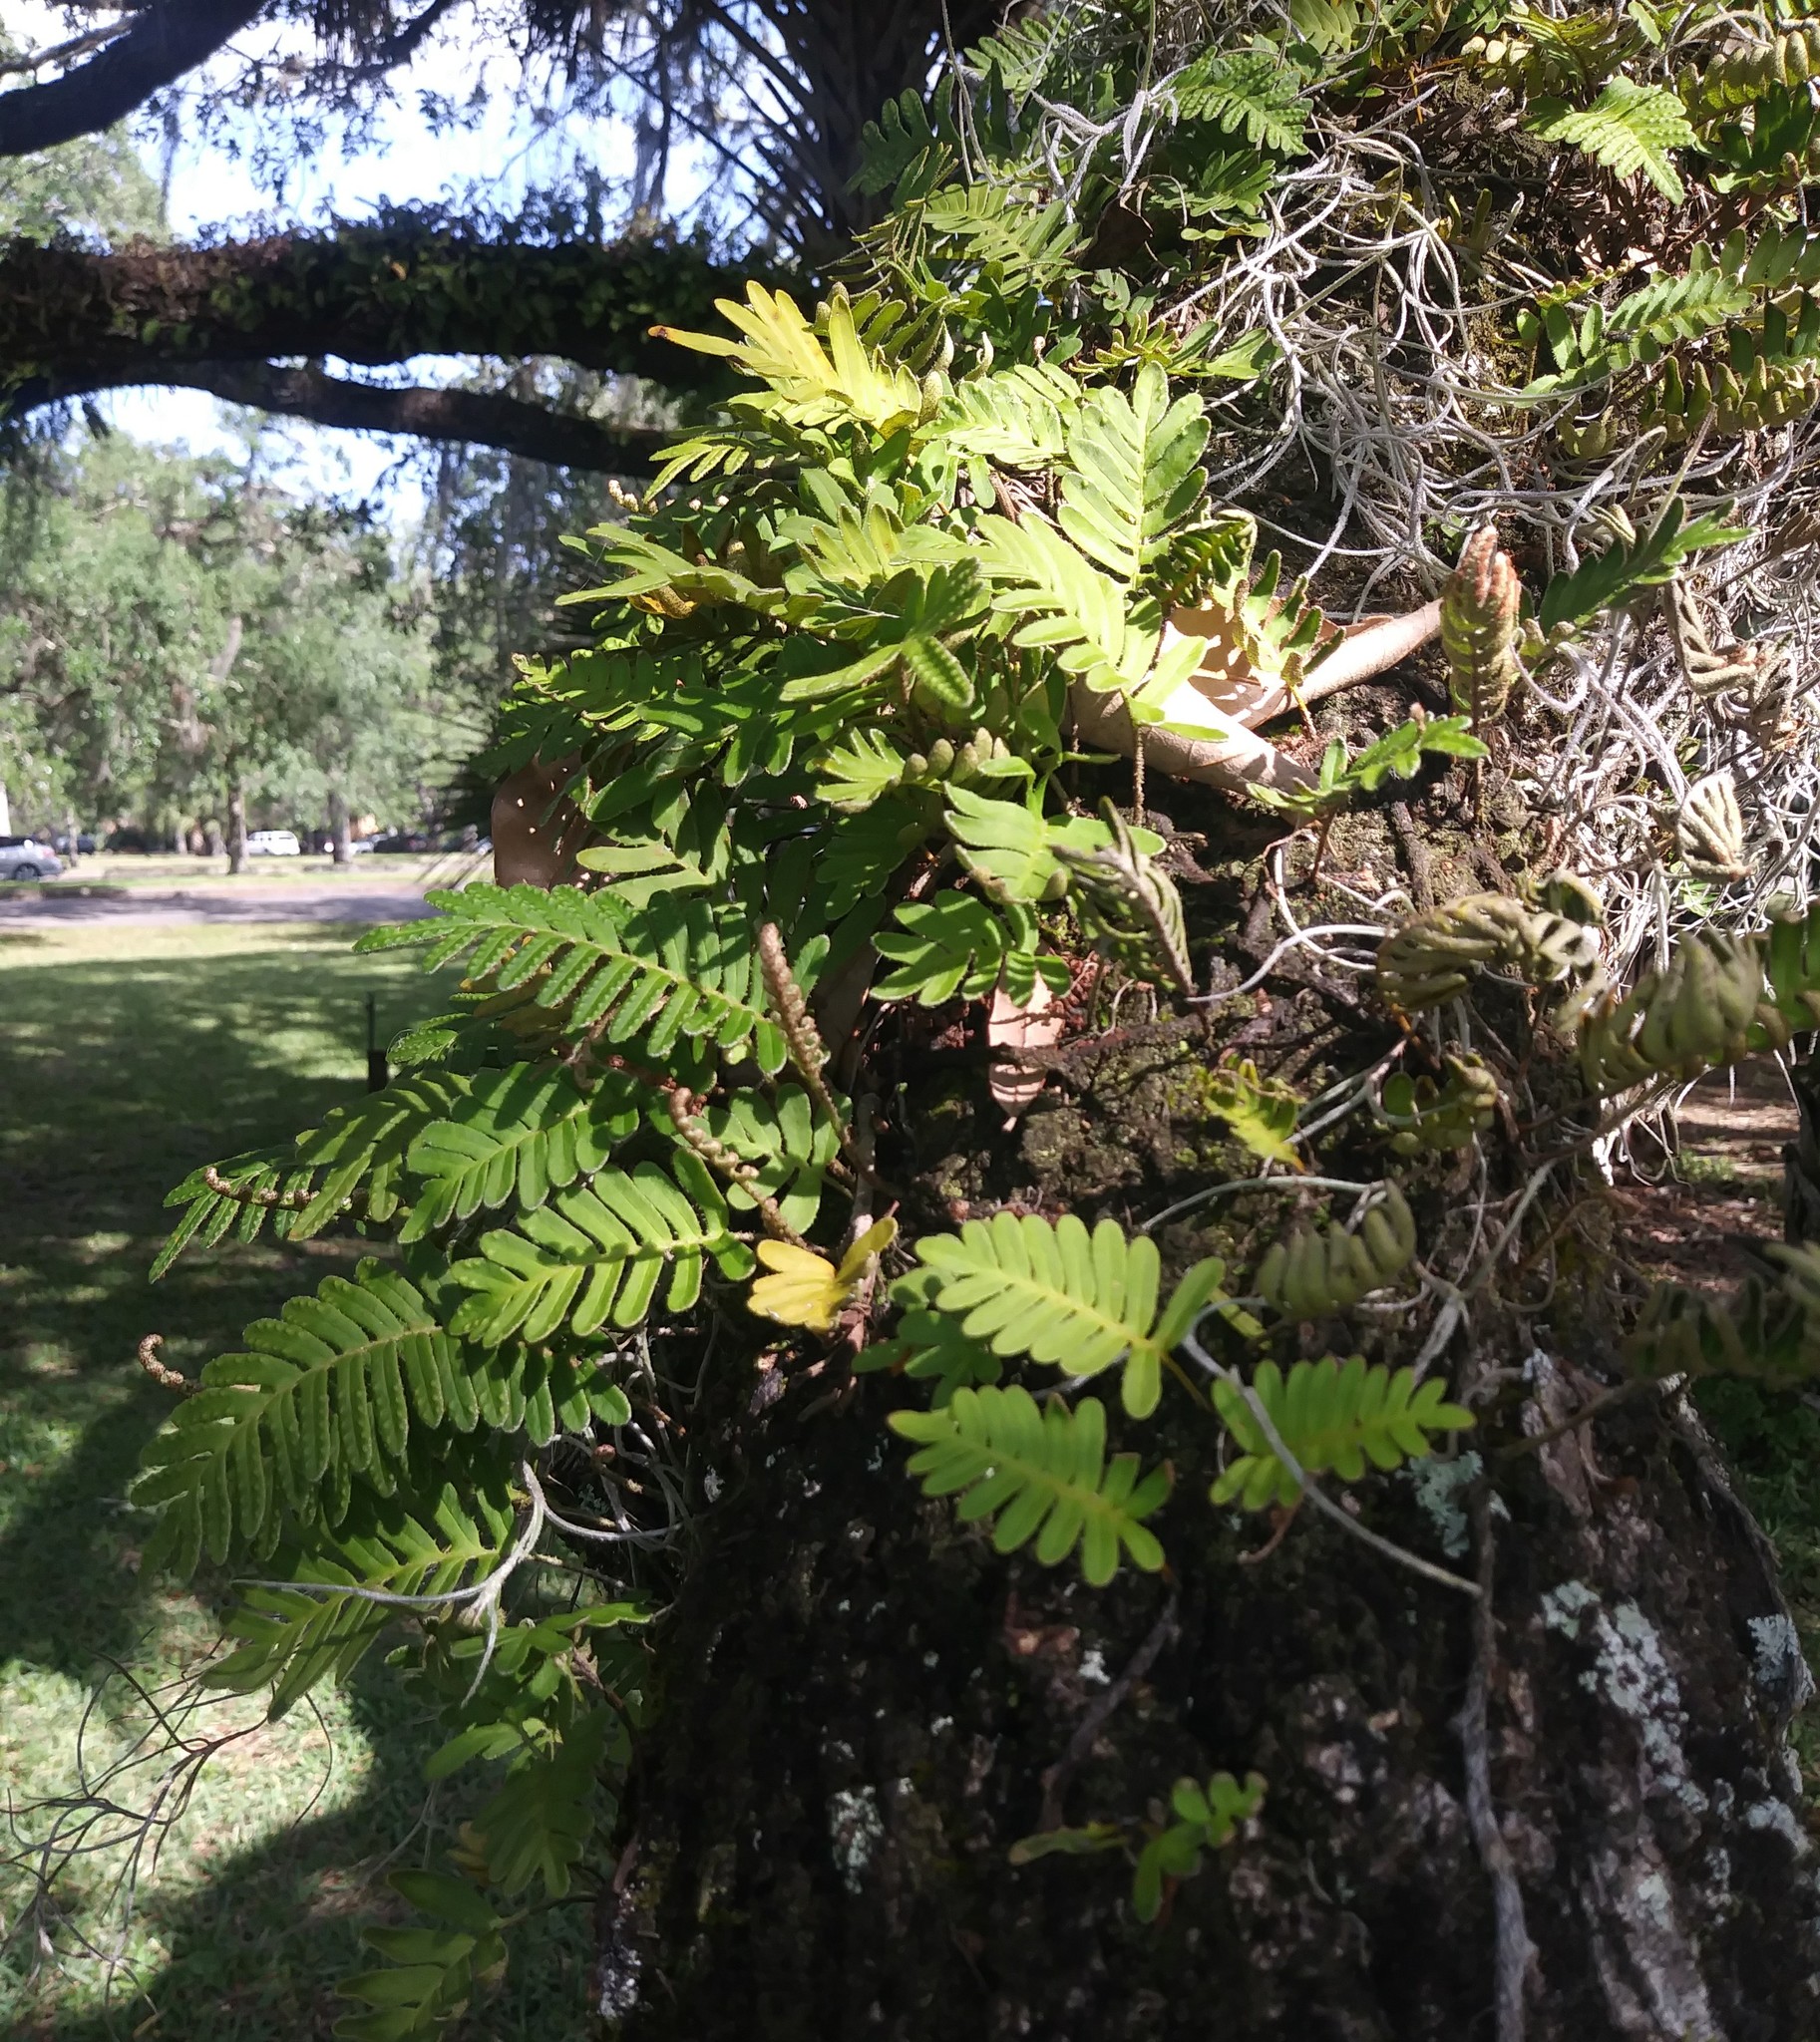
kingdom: Plantae
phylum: Tracheophyta
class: Polypodiopsida
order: Polypodiales
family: Polypodiaceae
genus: Pleopeltis
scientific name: Pleopeltis michauxiana
